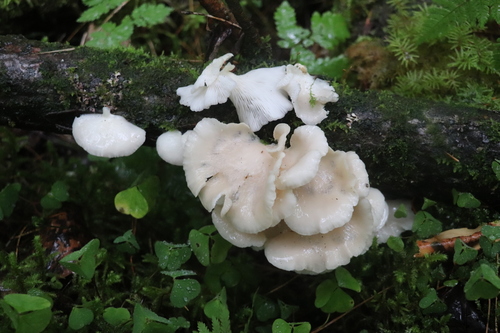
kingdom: Fungi
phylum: Basidiomycota
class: Agaricomycetes
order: Agaricales
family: Pleurotaceae
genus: Pleurotus
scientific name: Pleurotus pulmonarius
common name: Pale oyster
